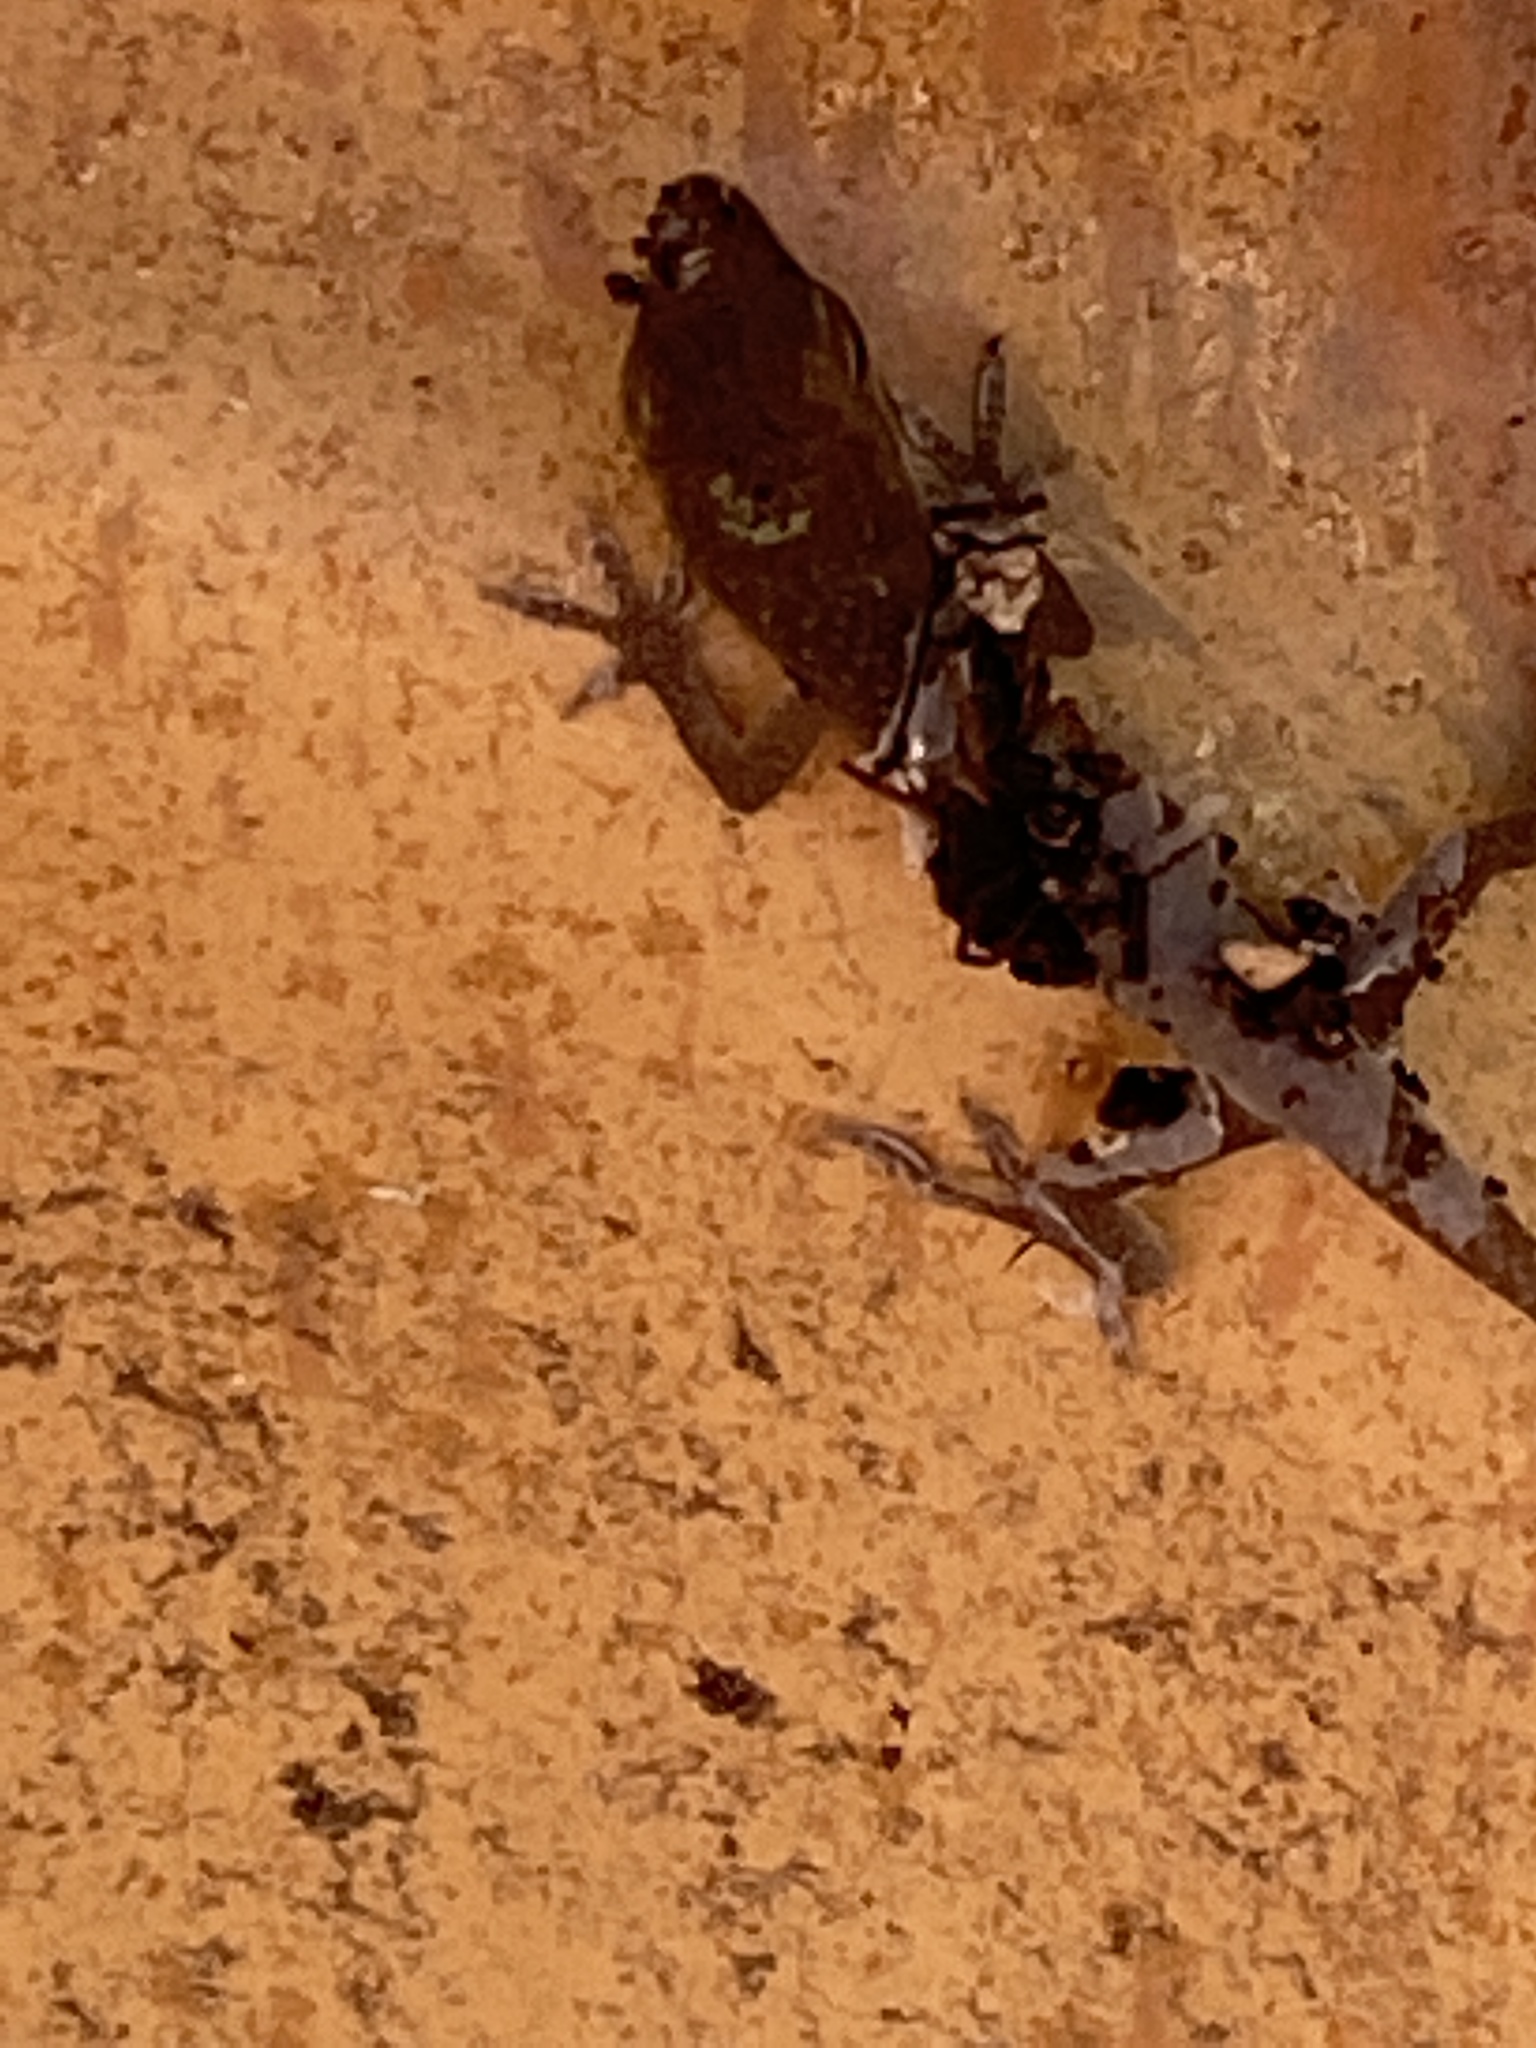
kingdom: Animalia
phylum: Chordata
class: Squamata
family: Dactyloidae
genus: Anolis
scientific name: Anolis carolinensis
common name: Green anole
